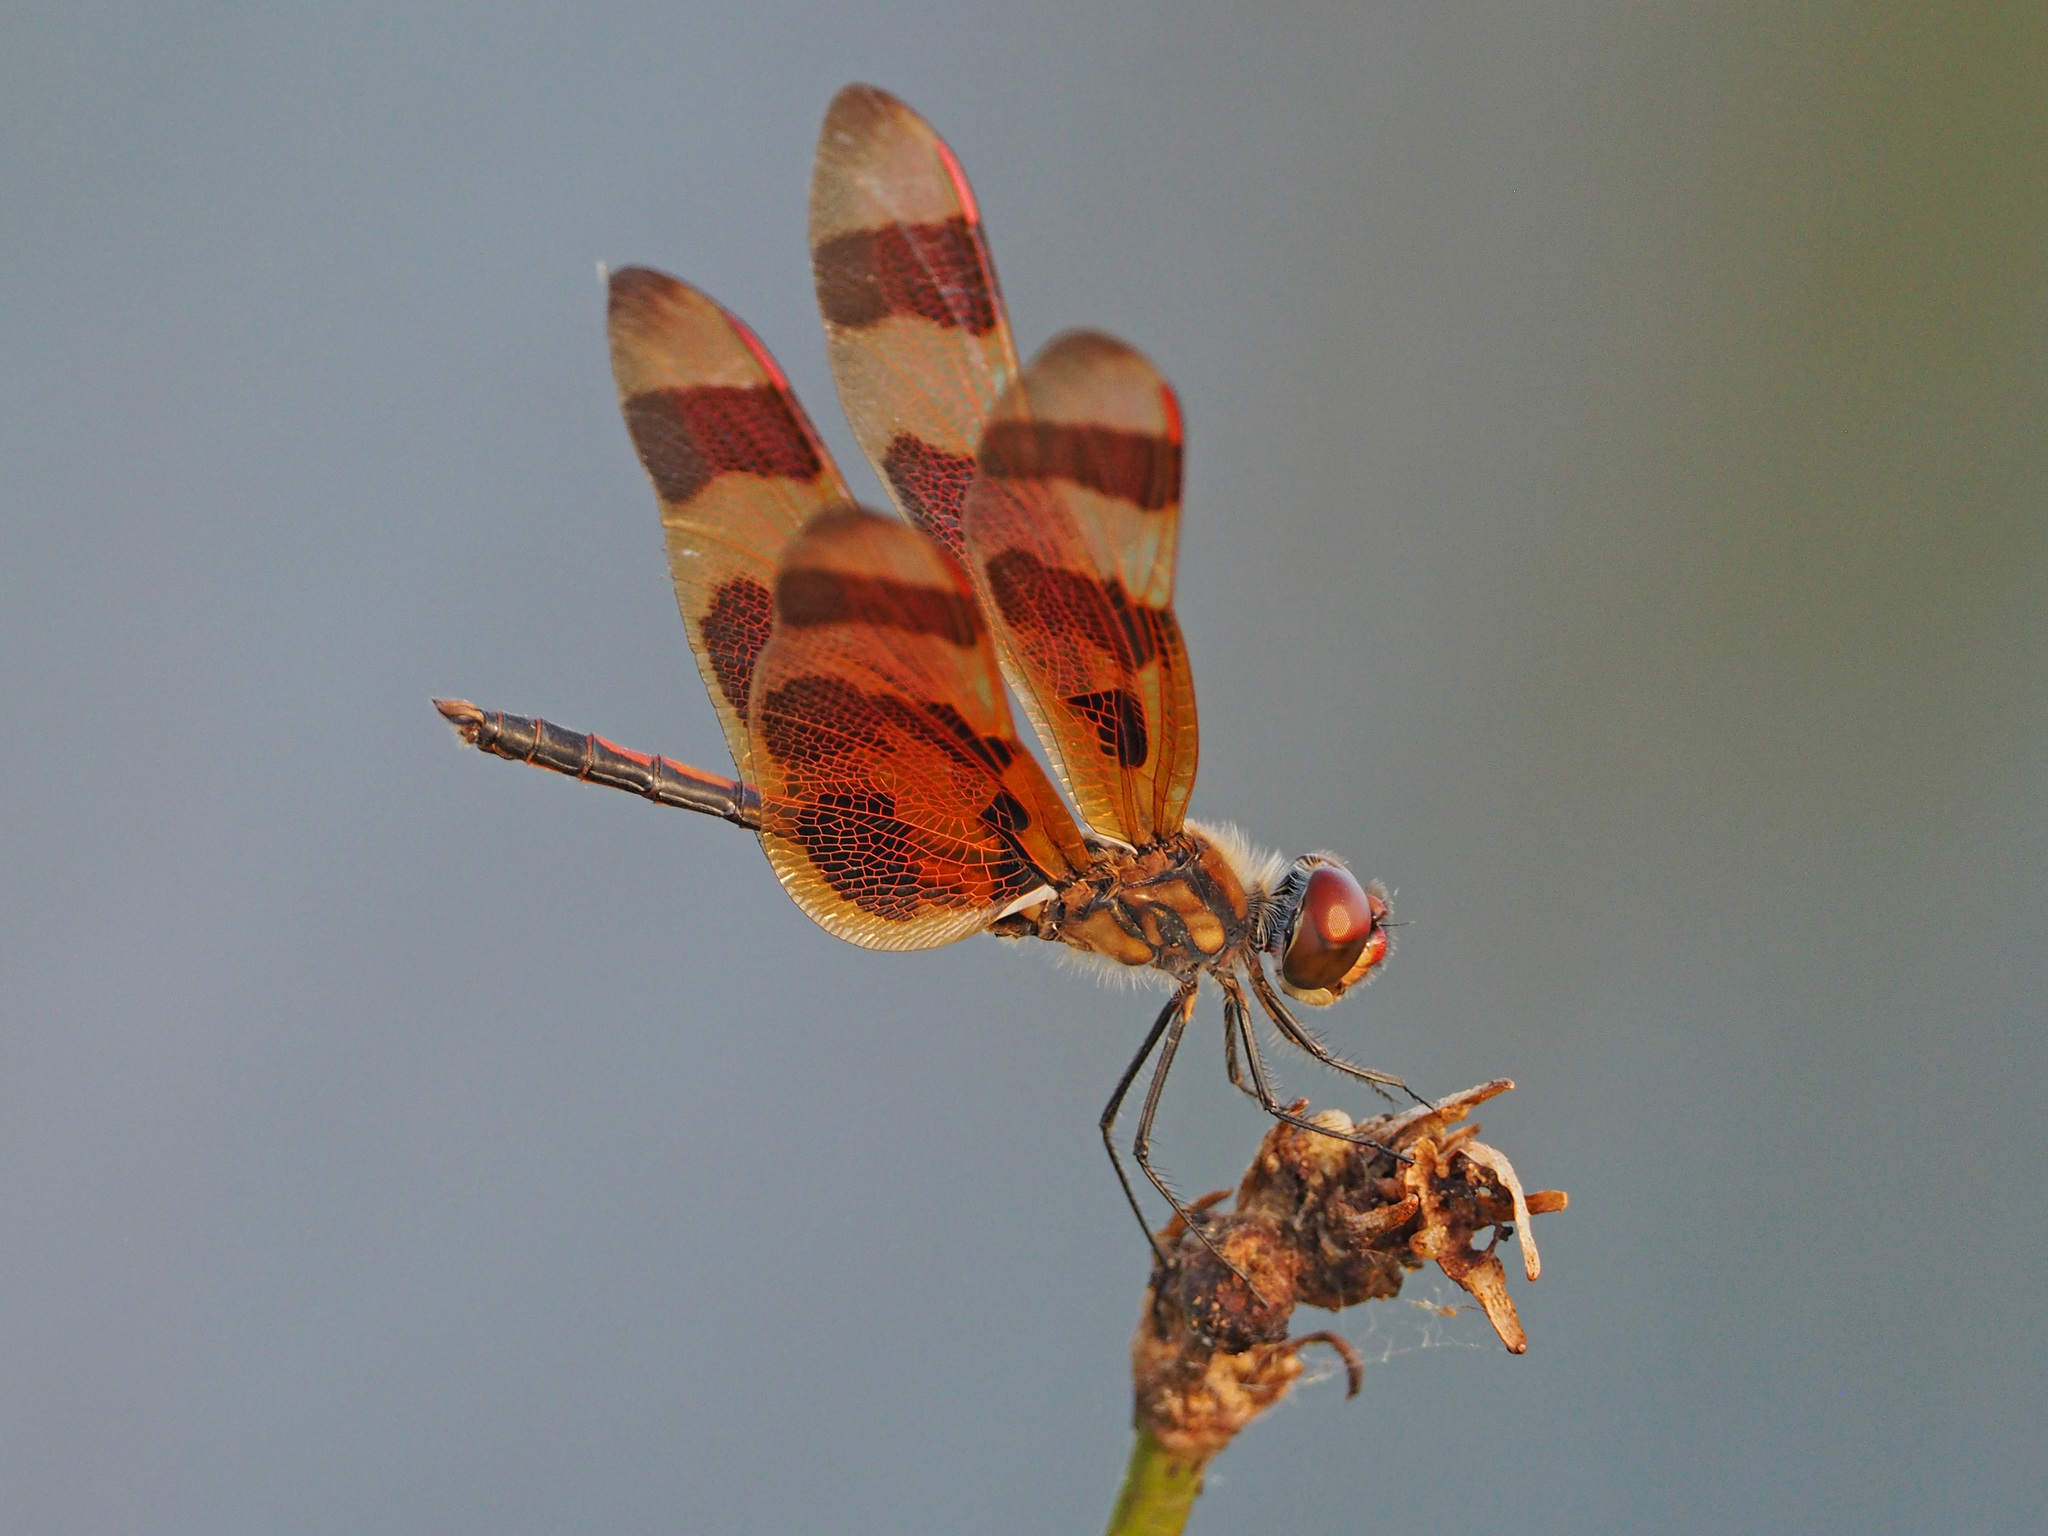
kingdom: Animalia
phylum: Arthropoda
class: Insecta
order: Odonata
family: Libellulidae
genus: Celithemis
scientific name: Celithemis eponina
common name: Halloween pennant
